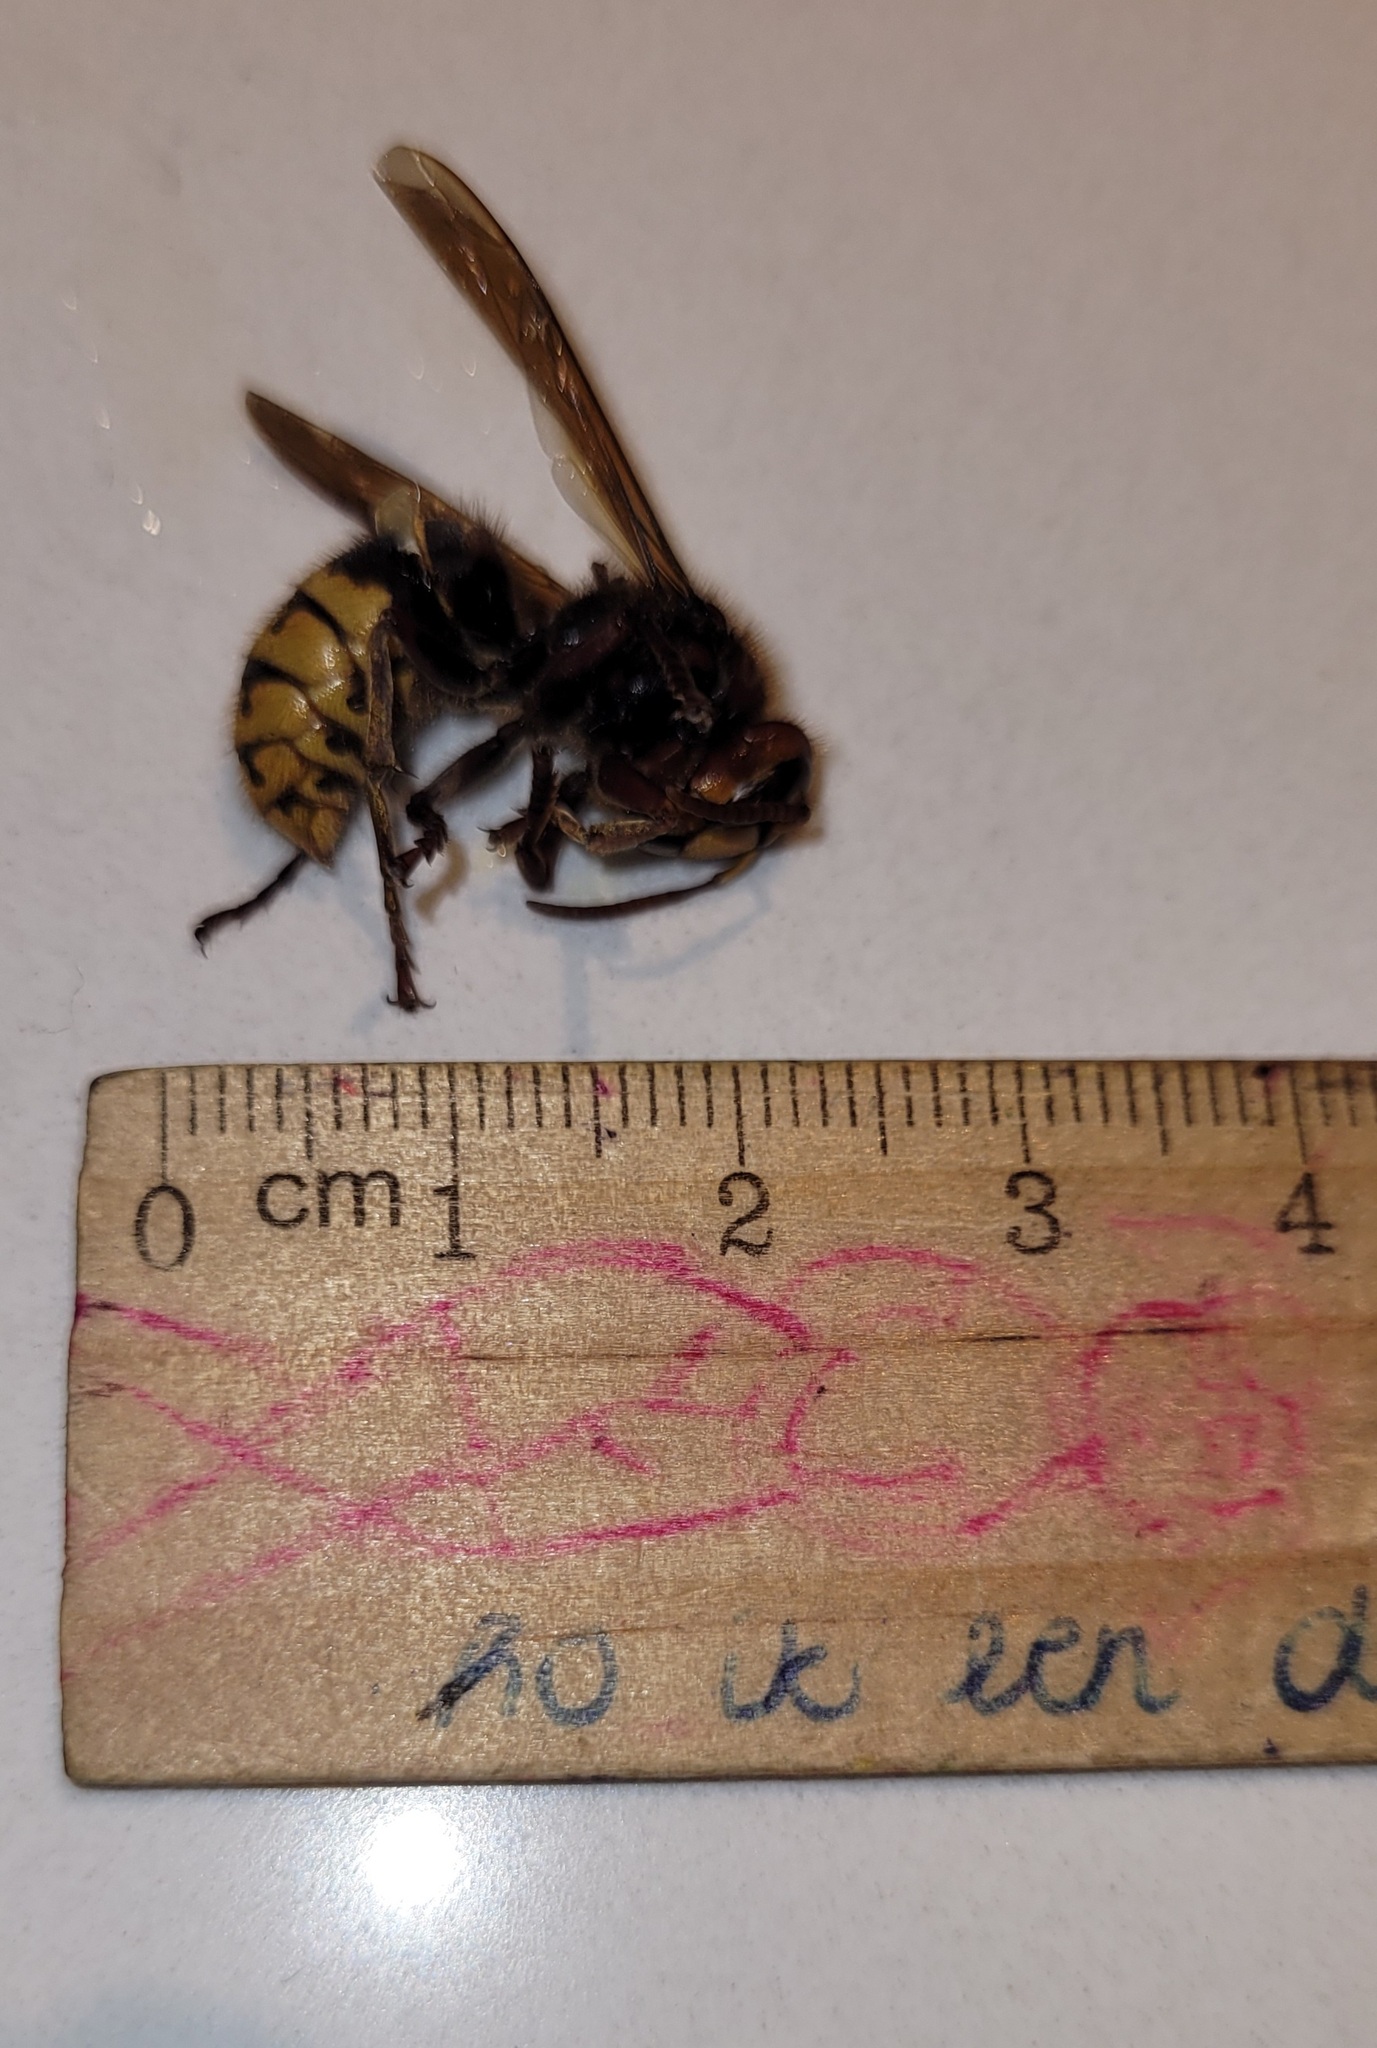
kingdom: Animalia
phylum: Arthropoda
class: Insecta
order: Hymenoptera
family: Vespidae
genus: Vespa
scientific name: Vespa crabro
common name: Hornet
